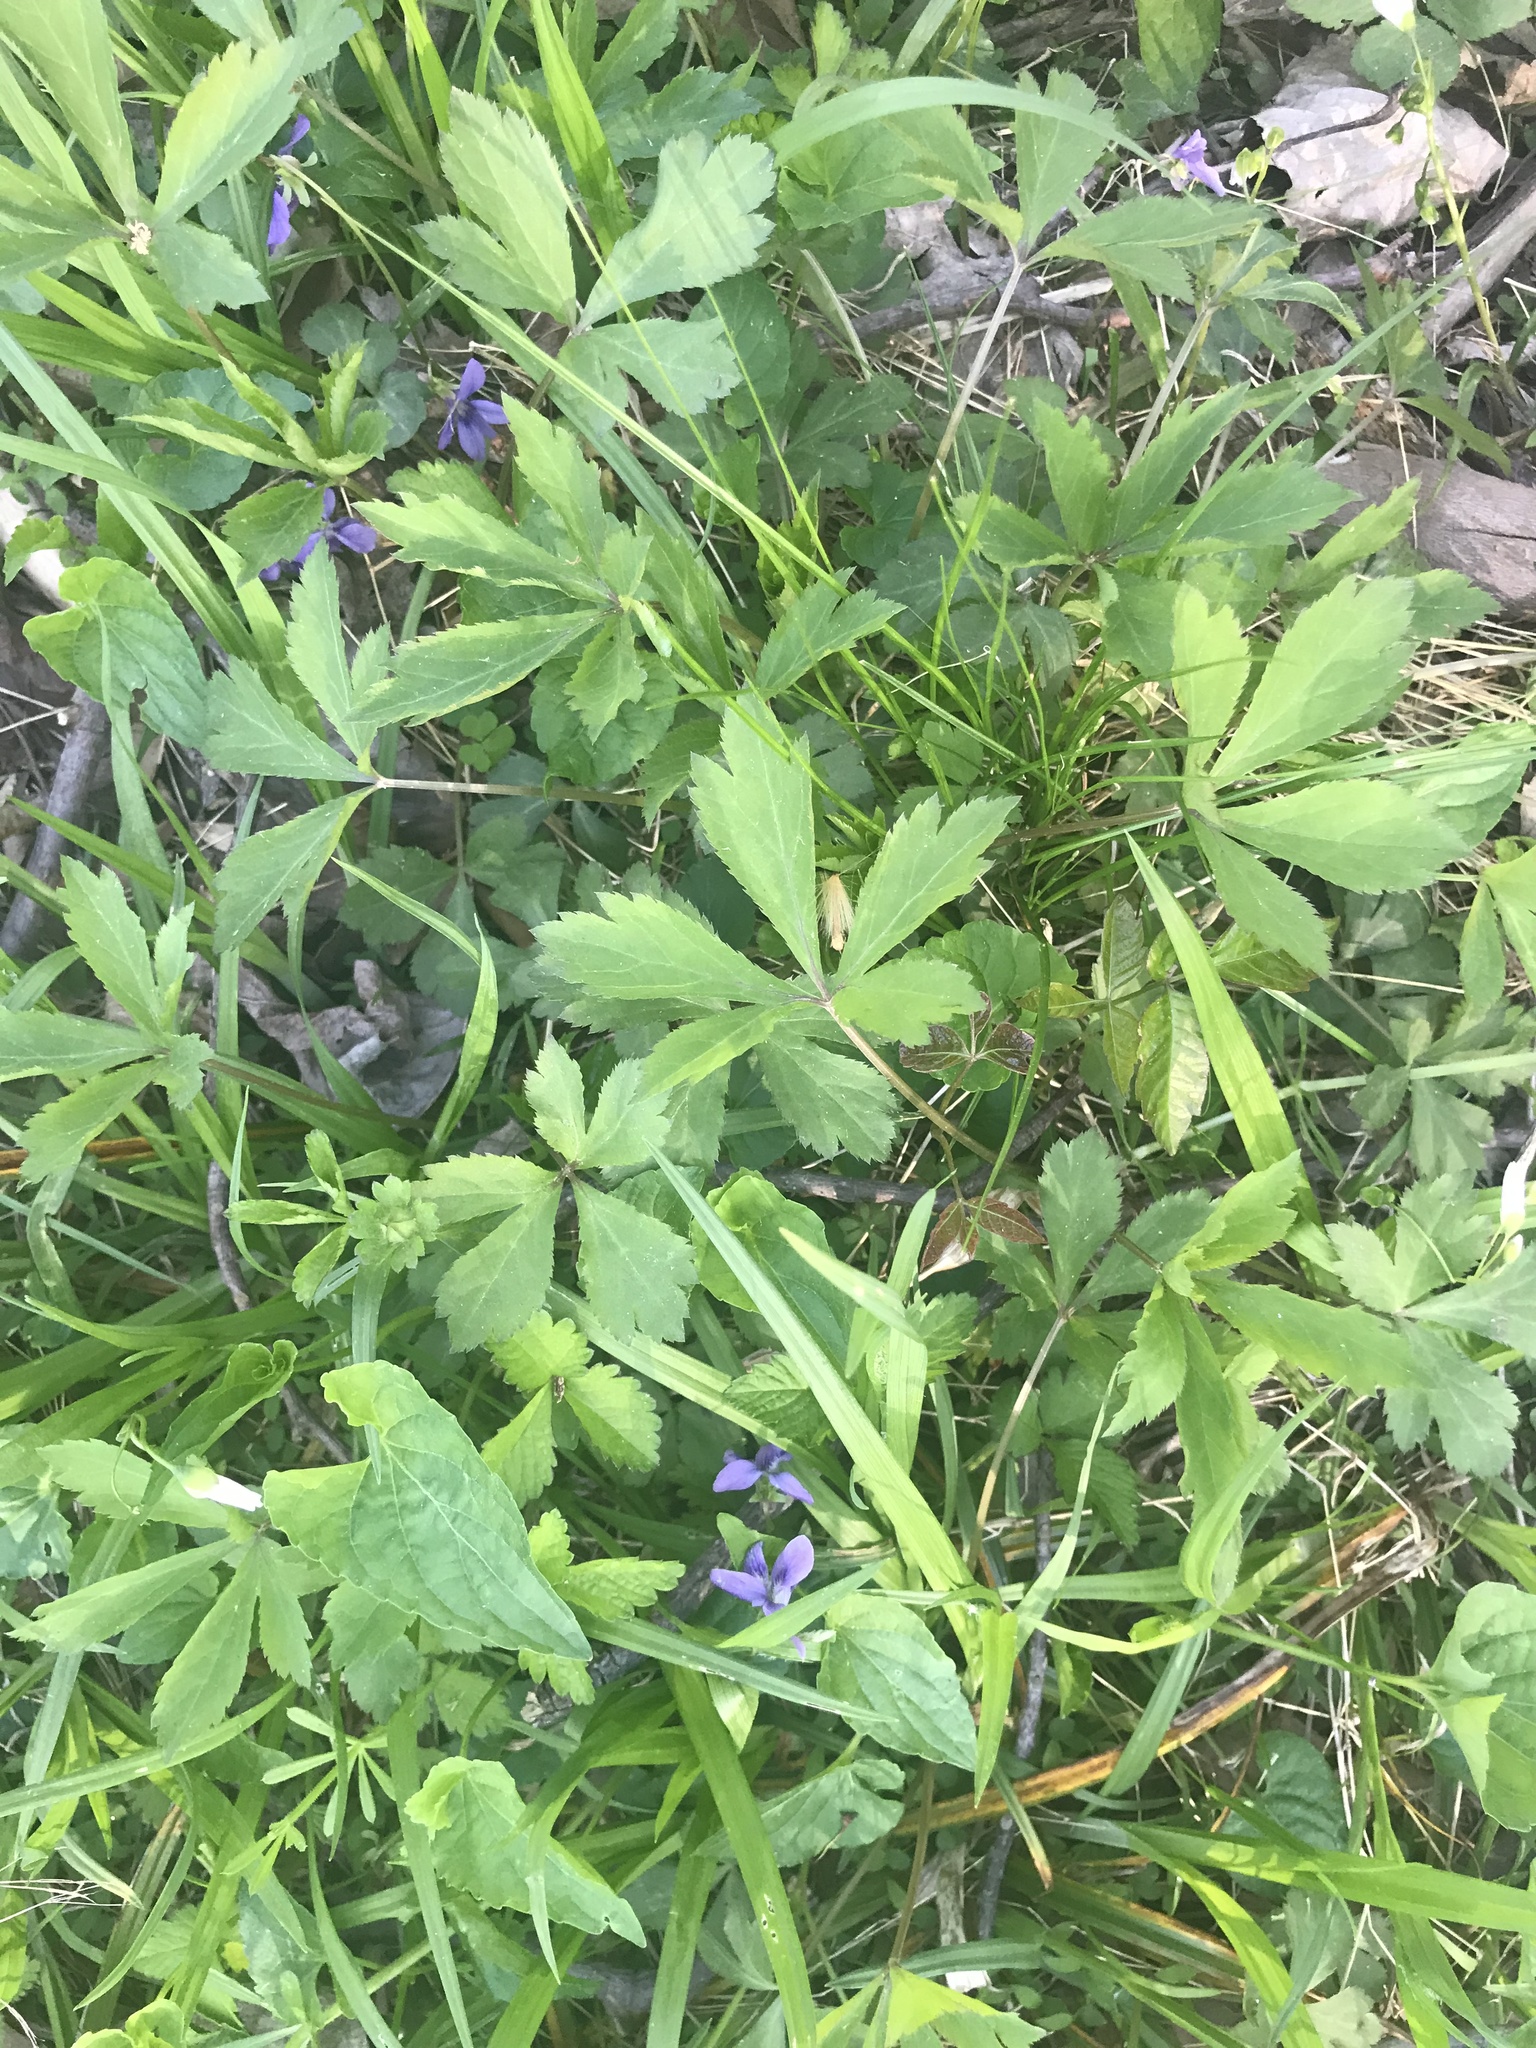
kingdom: Plantae
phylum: Tracheophyta
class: Magnoliopsida
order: Apiales
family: Apiaceae
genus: Sanicula
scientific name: Sanicula canadensis
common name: Canada sanicle
